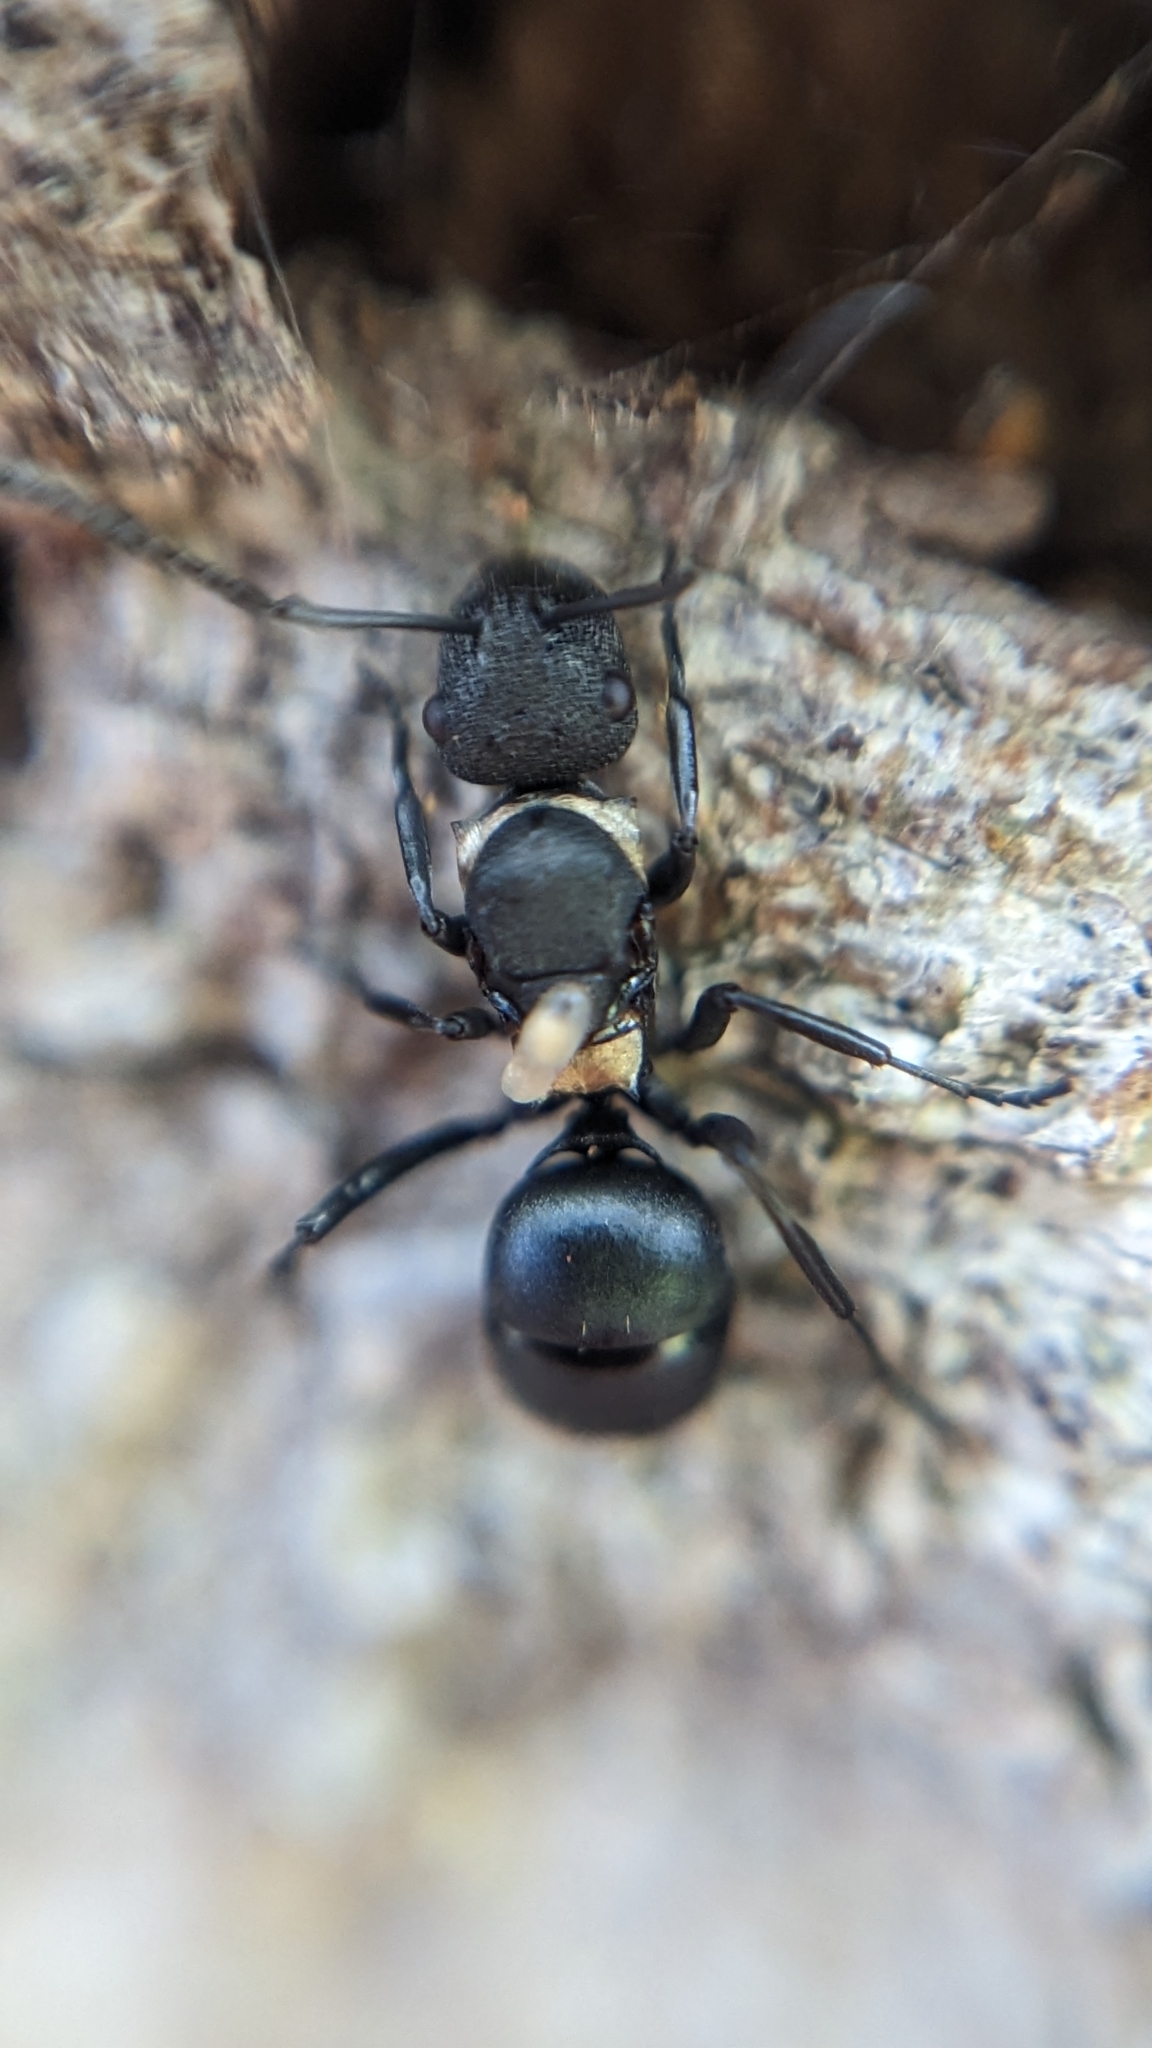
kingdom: Animalia
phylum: Arthropoda
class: Insecta
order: Hymenoptera
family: Formicidae
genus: Polyrhachis
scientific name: Polyrhachis machaon
